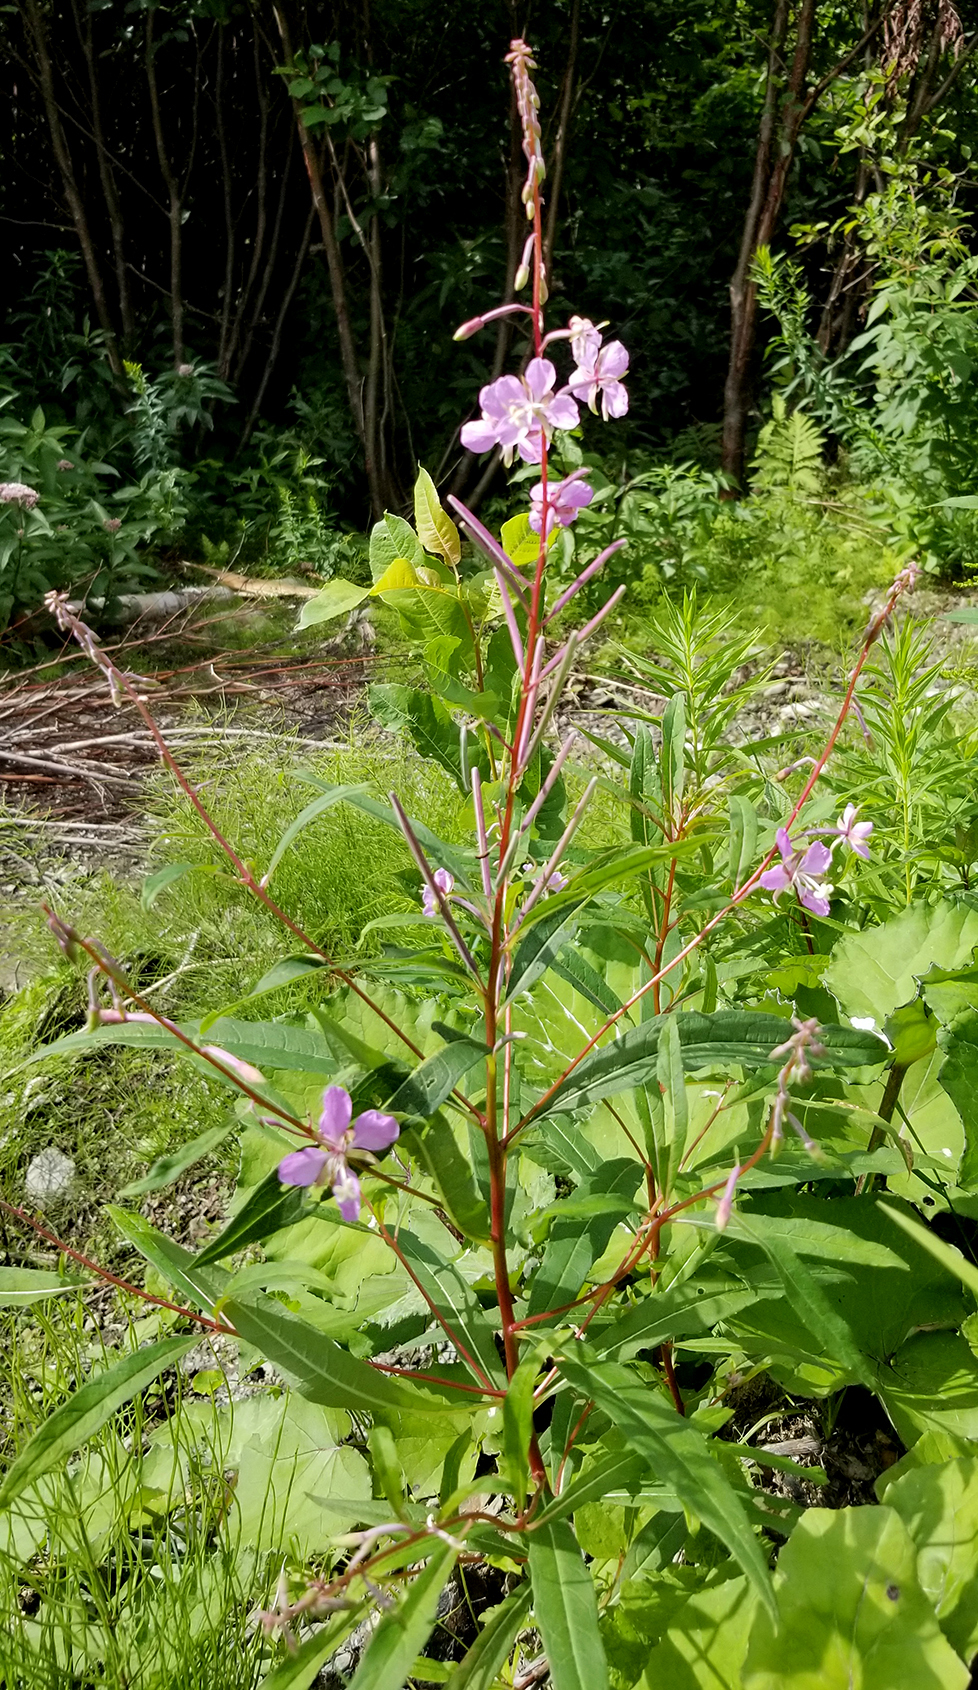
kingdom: Plantae
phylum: Tracheophyta
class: Magnoliopsida
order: Myrtales
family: Onagraceae
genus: Chamaenerion
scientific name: Chamaenerion angustifolium
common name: Fireweed
